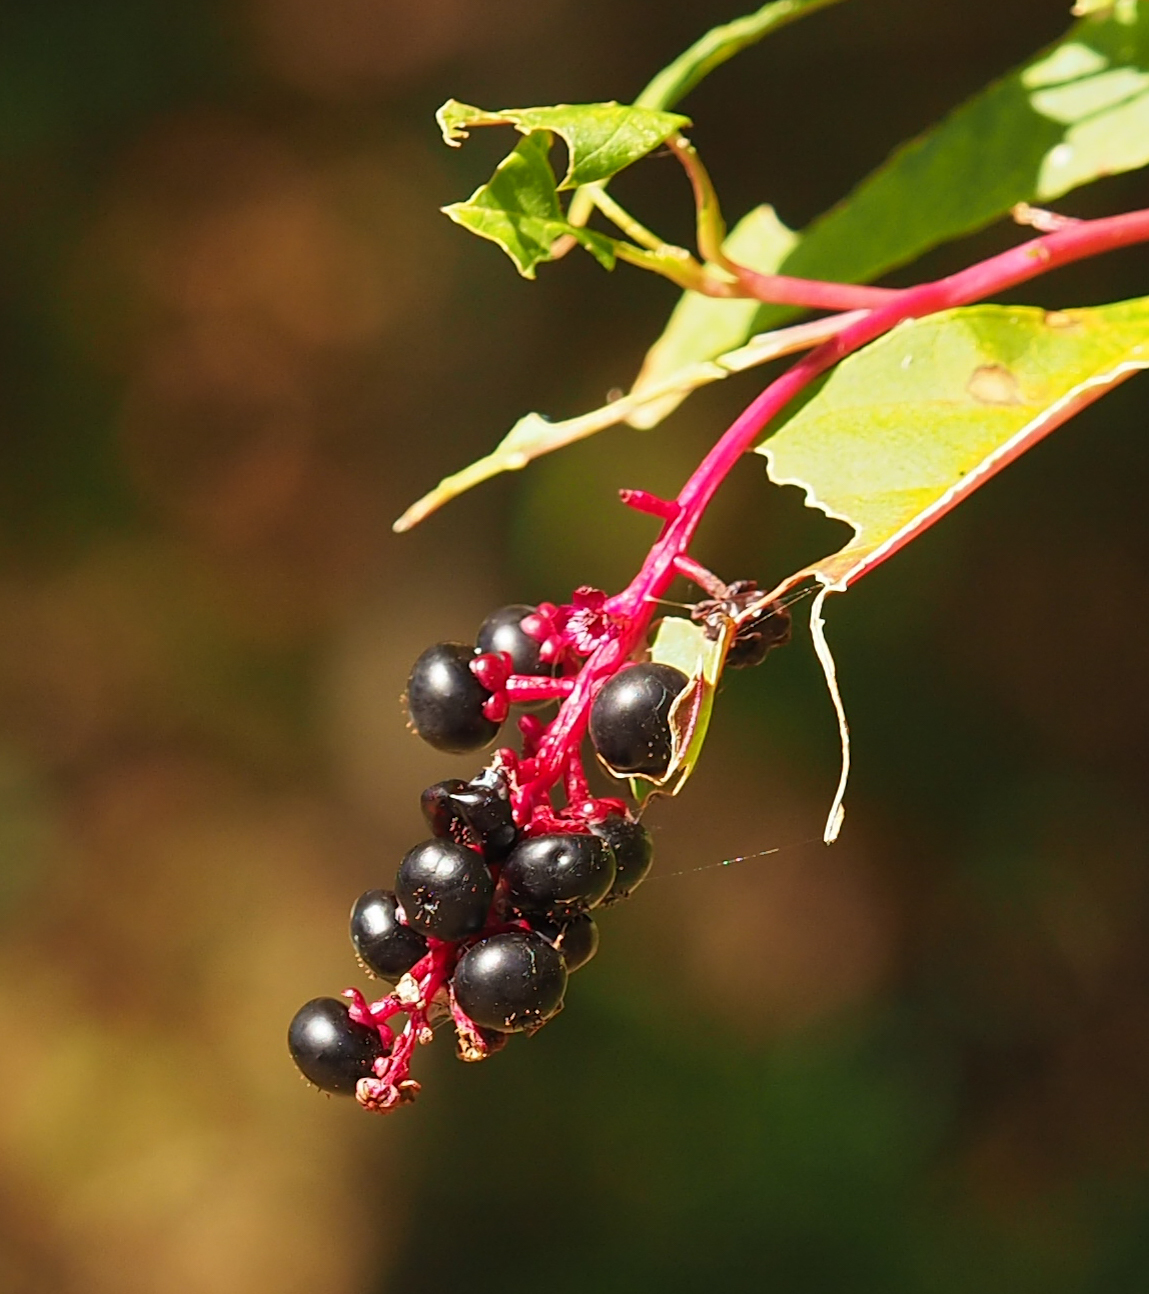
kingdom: Plantae
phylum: Tracheophyta
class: Magnoliopsida
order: Caryophyllales
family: Phytolaccaceae
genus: Phytolacca
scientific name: Phytolacca americana
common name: American pokeweed
